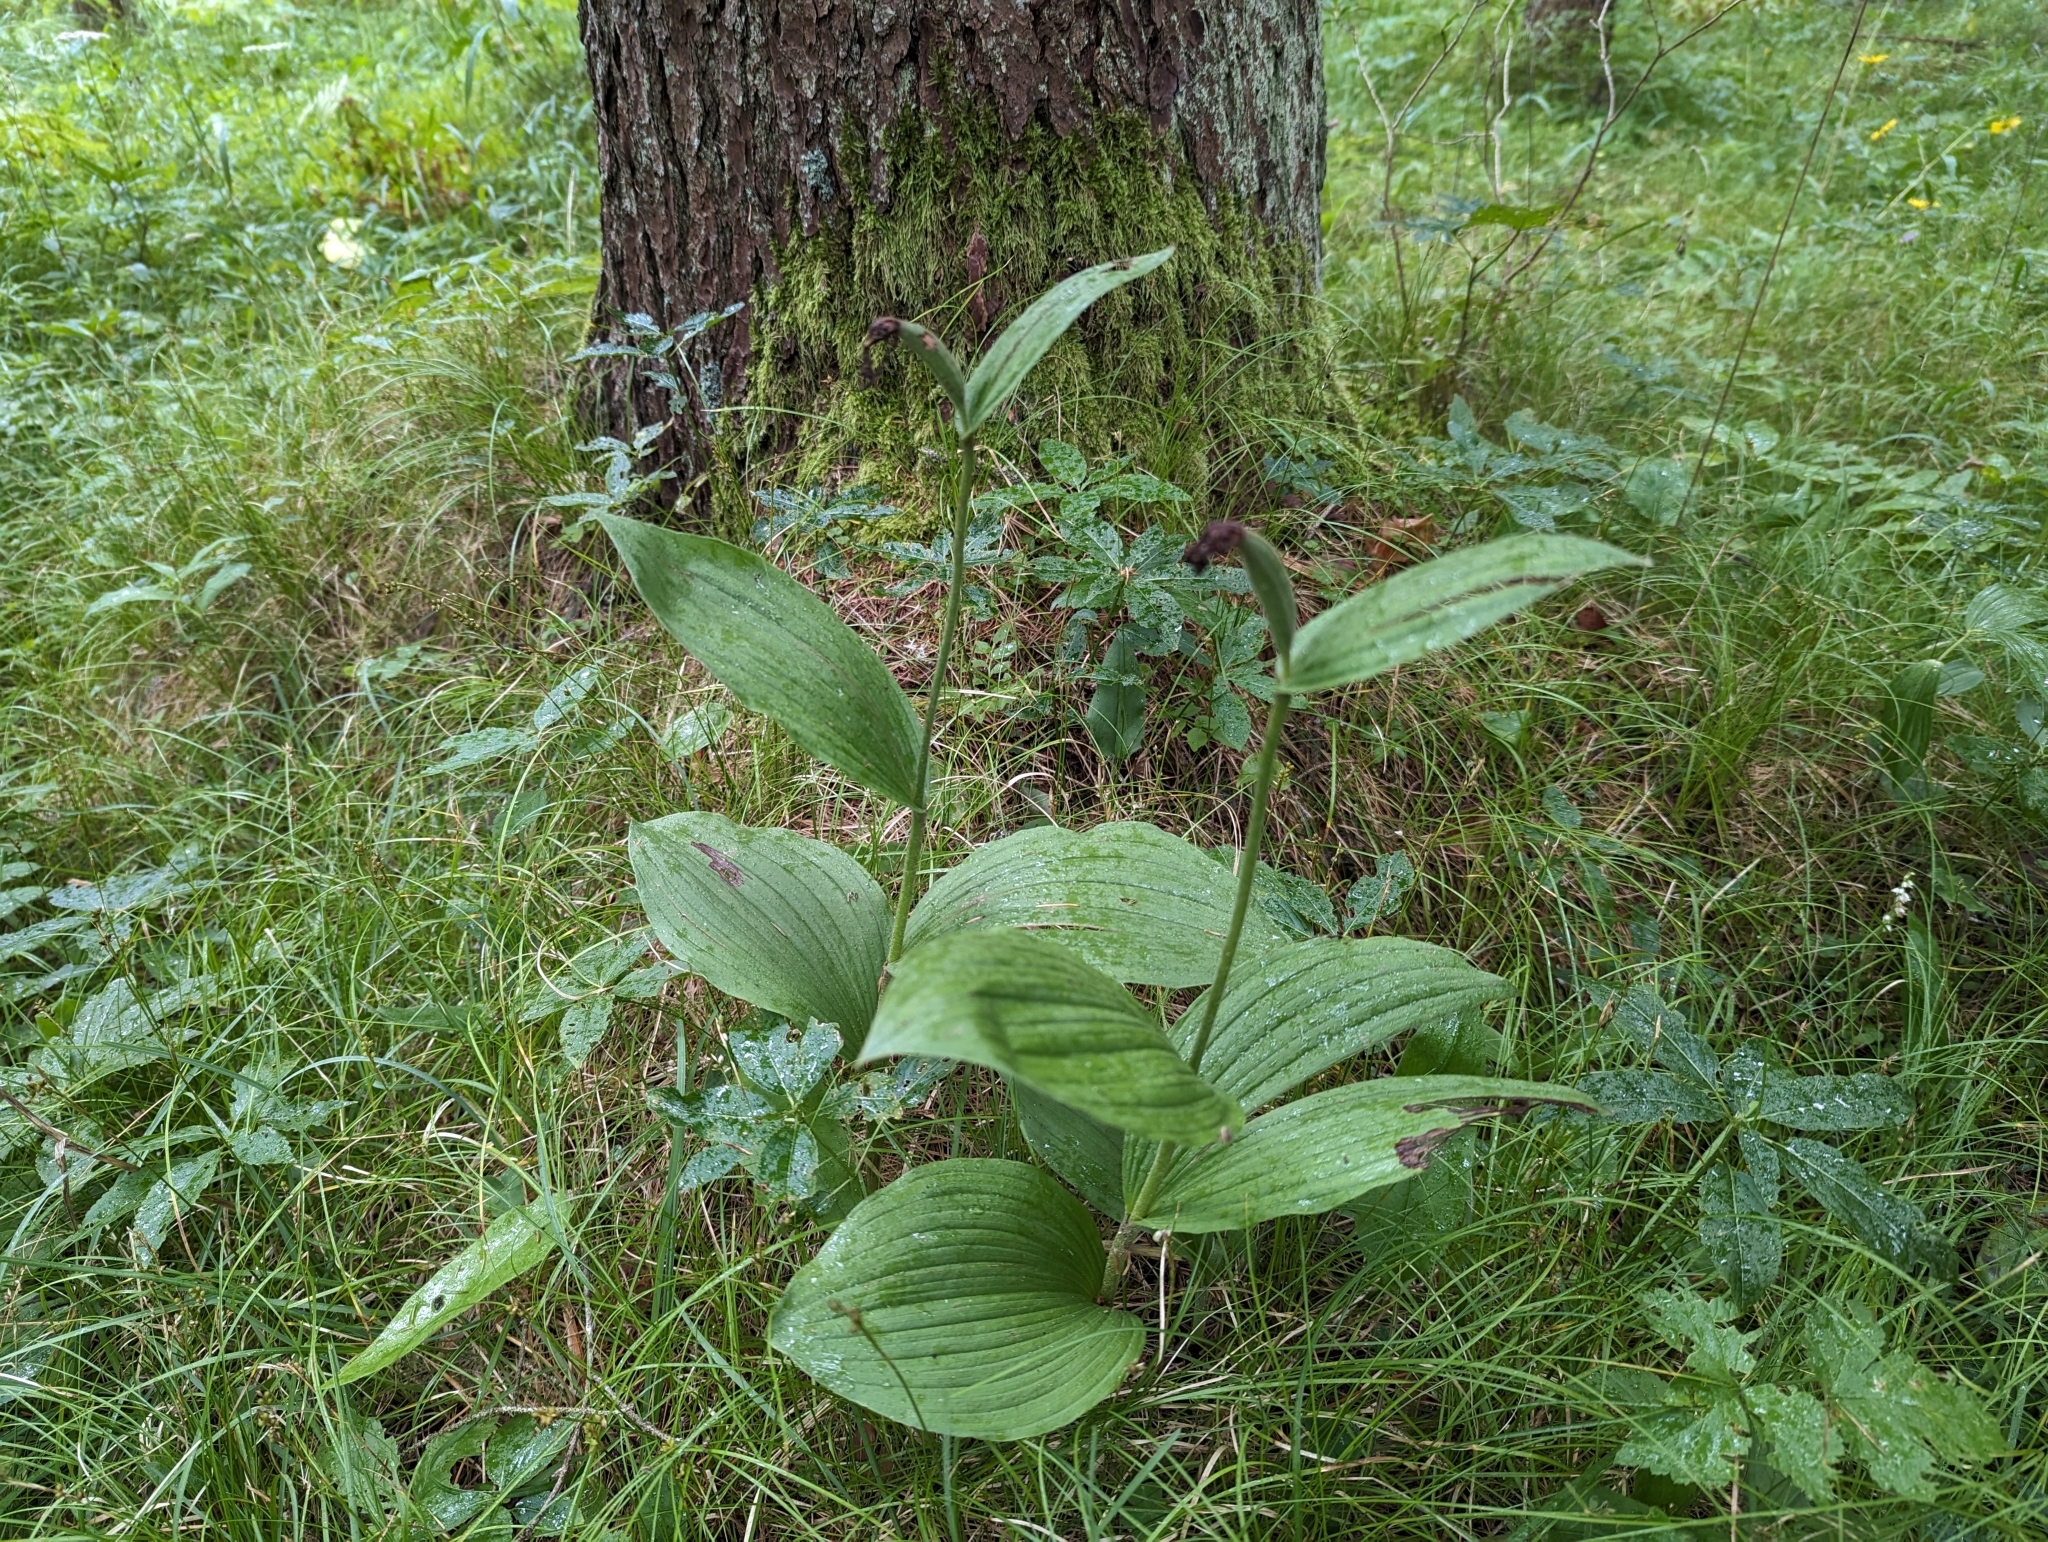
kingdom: Plantae
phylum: Tracheophyta
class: Liliopsida
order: Asparagales
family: Orchidaceae
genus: Cypripedium
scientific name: Cypripedium calceolus
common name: Lady's-slipper
